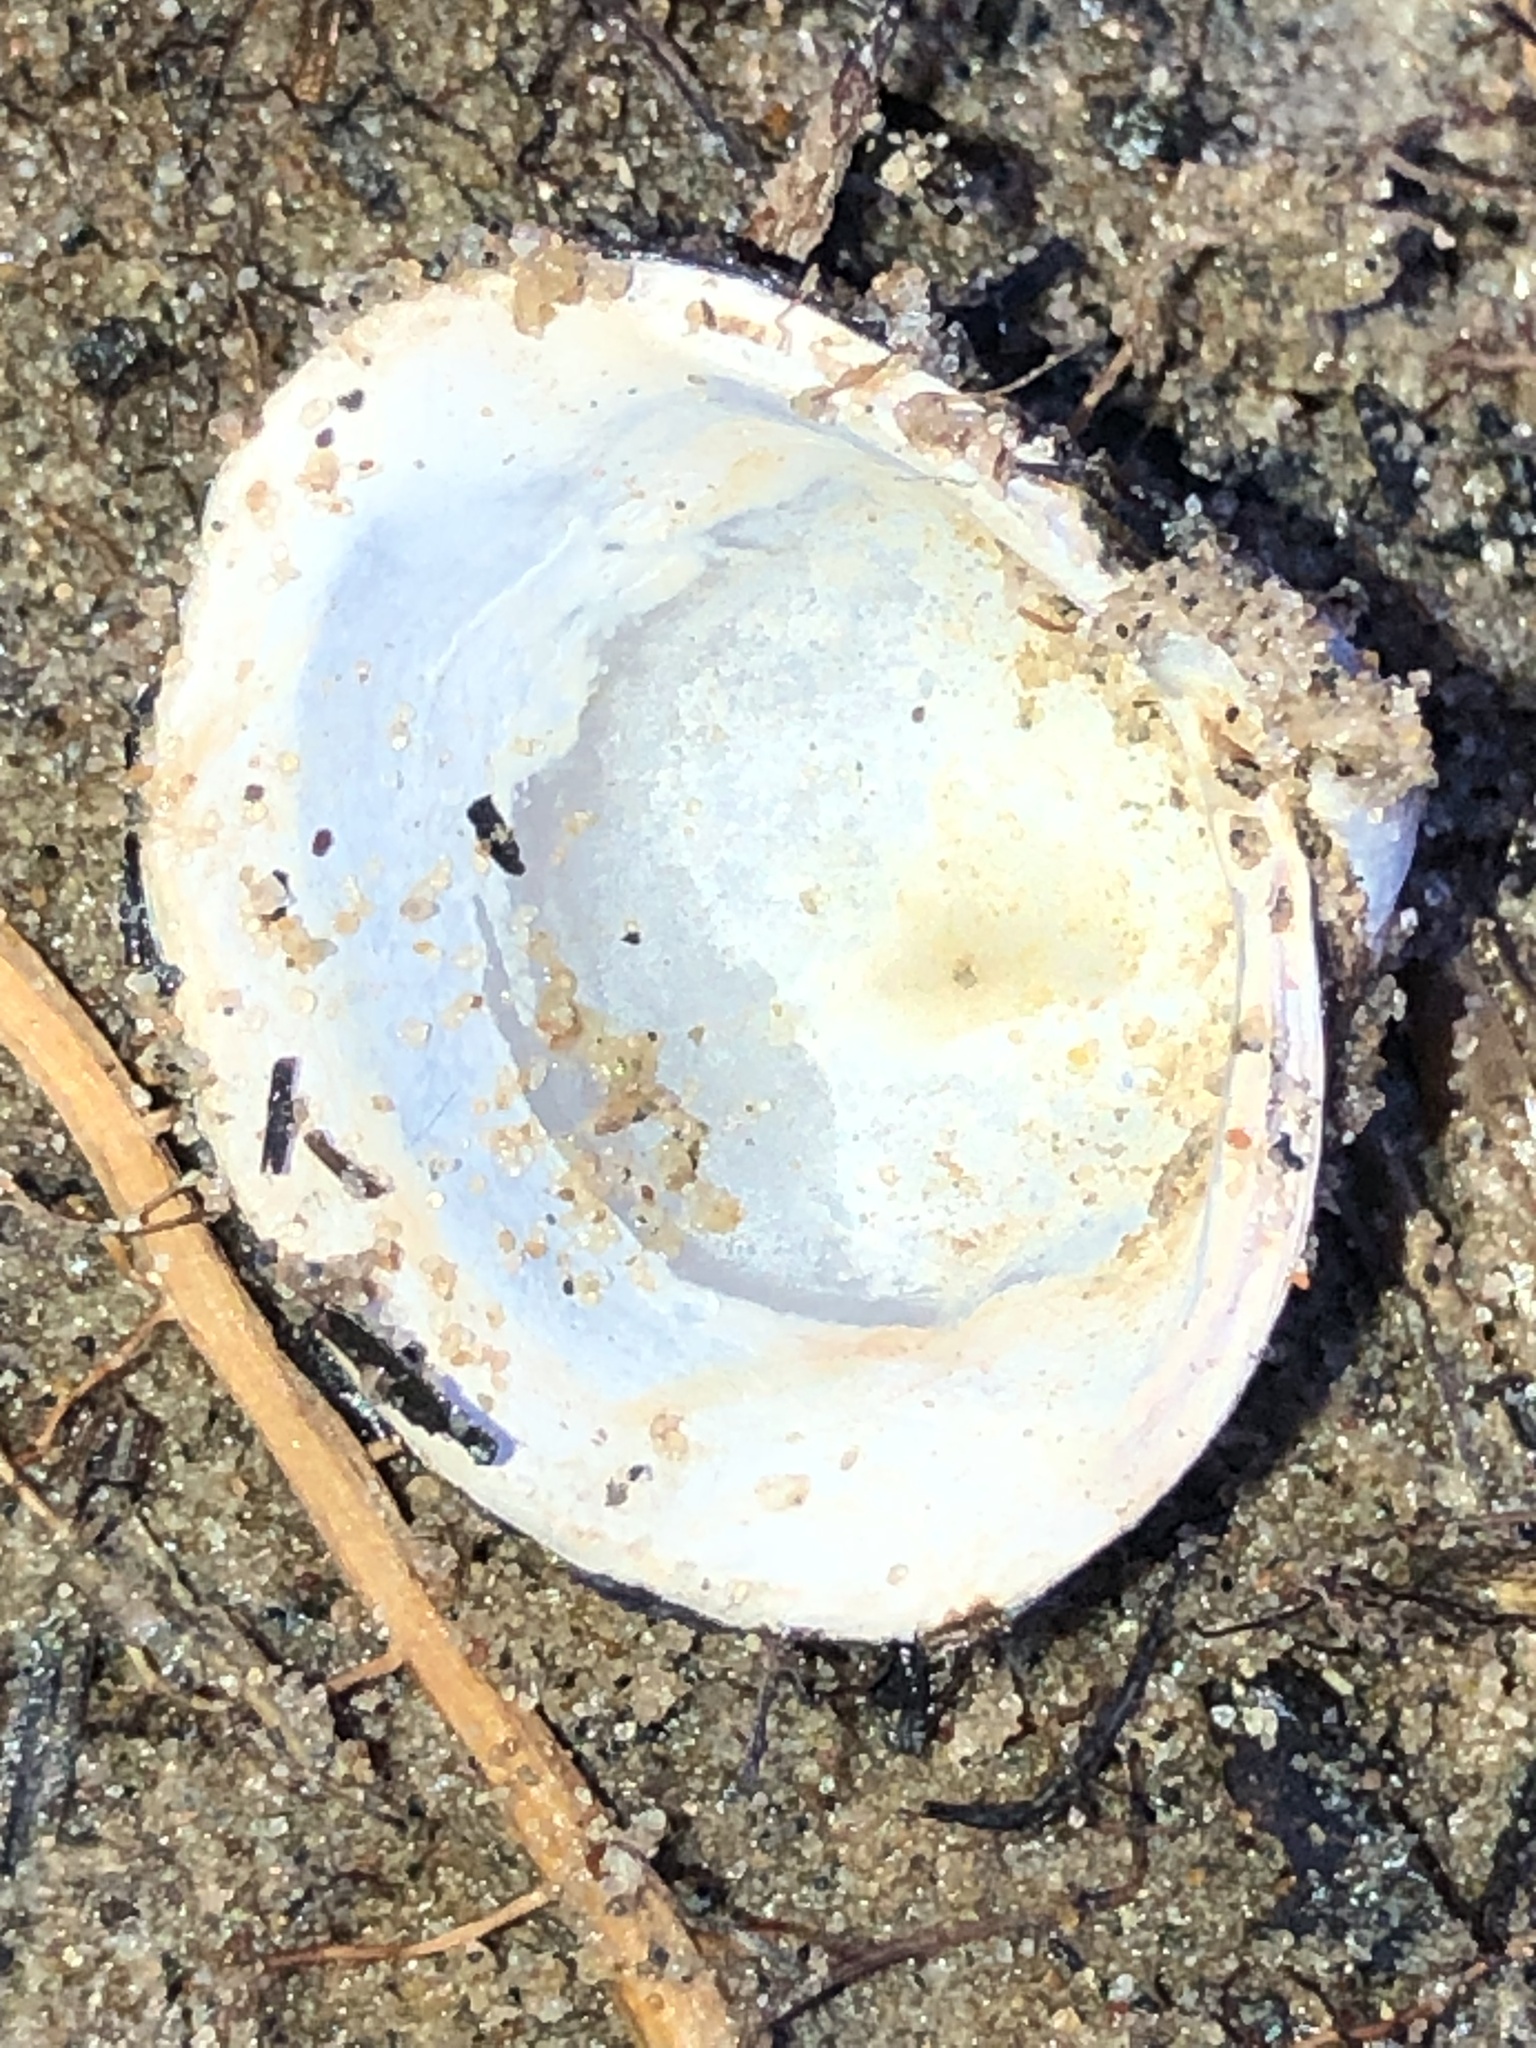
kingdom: Animalia
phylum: Mollusca
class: Bivalvia
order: Venerida
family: Cyrenidae
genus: Corbicula
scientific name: Corbicula fluminea
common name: Asian clam
